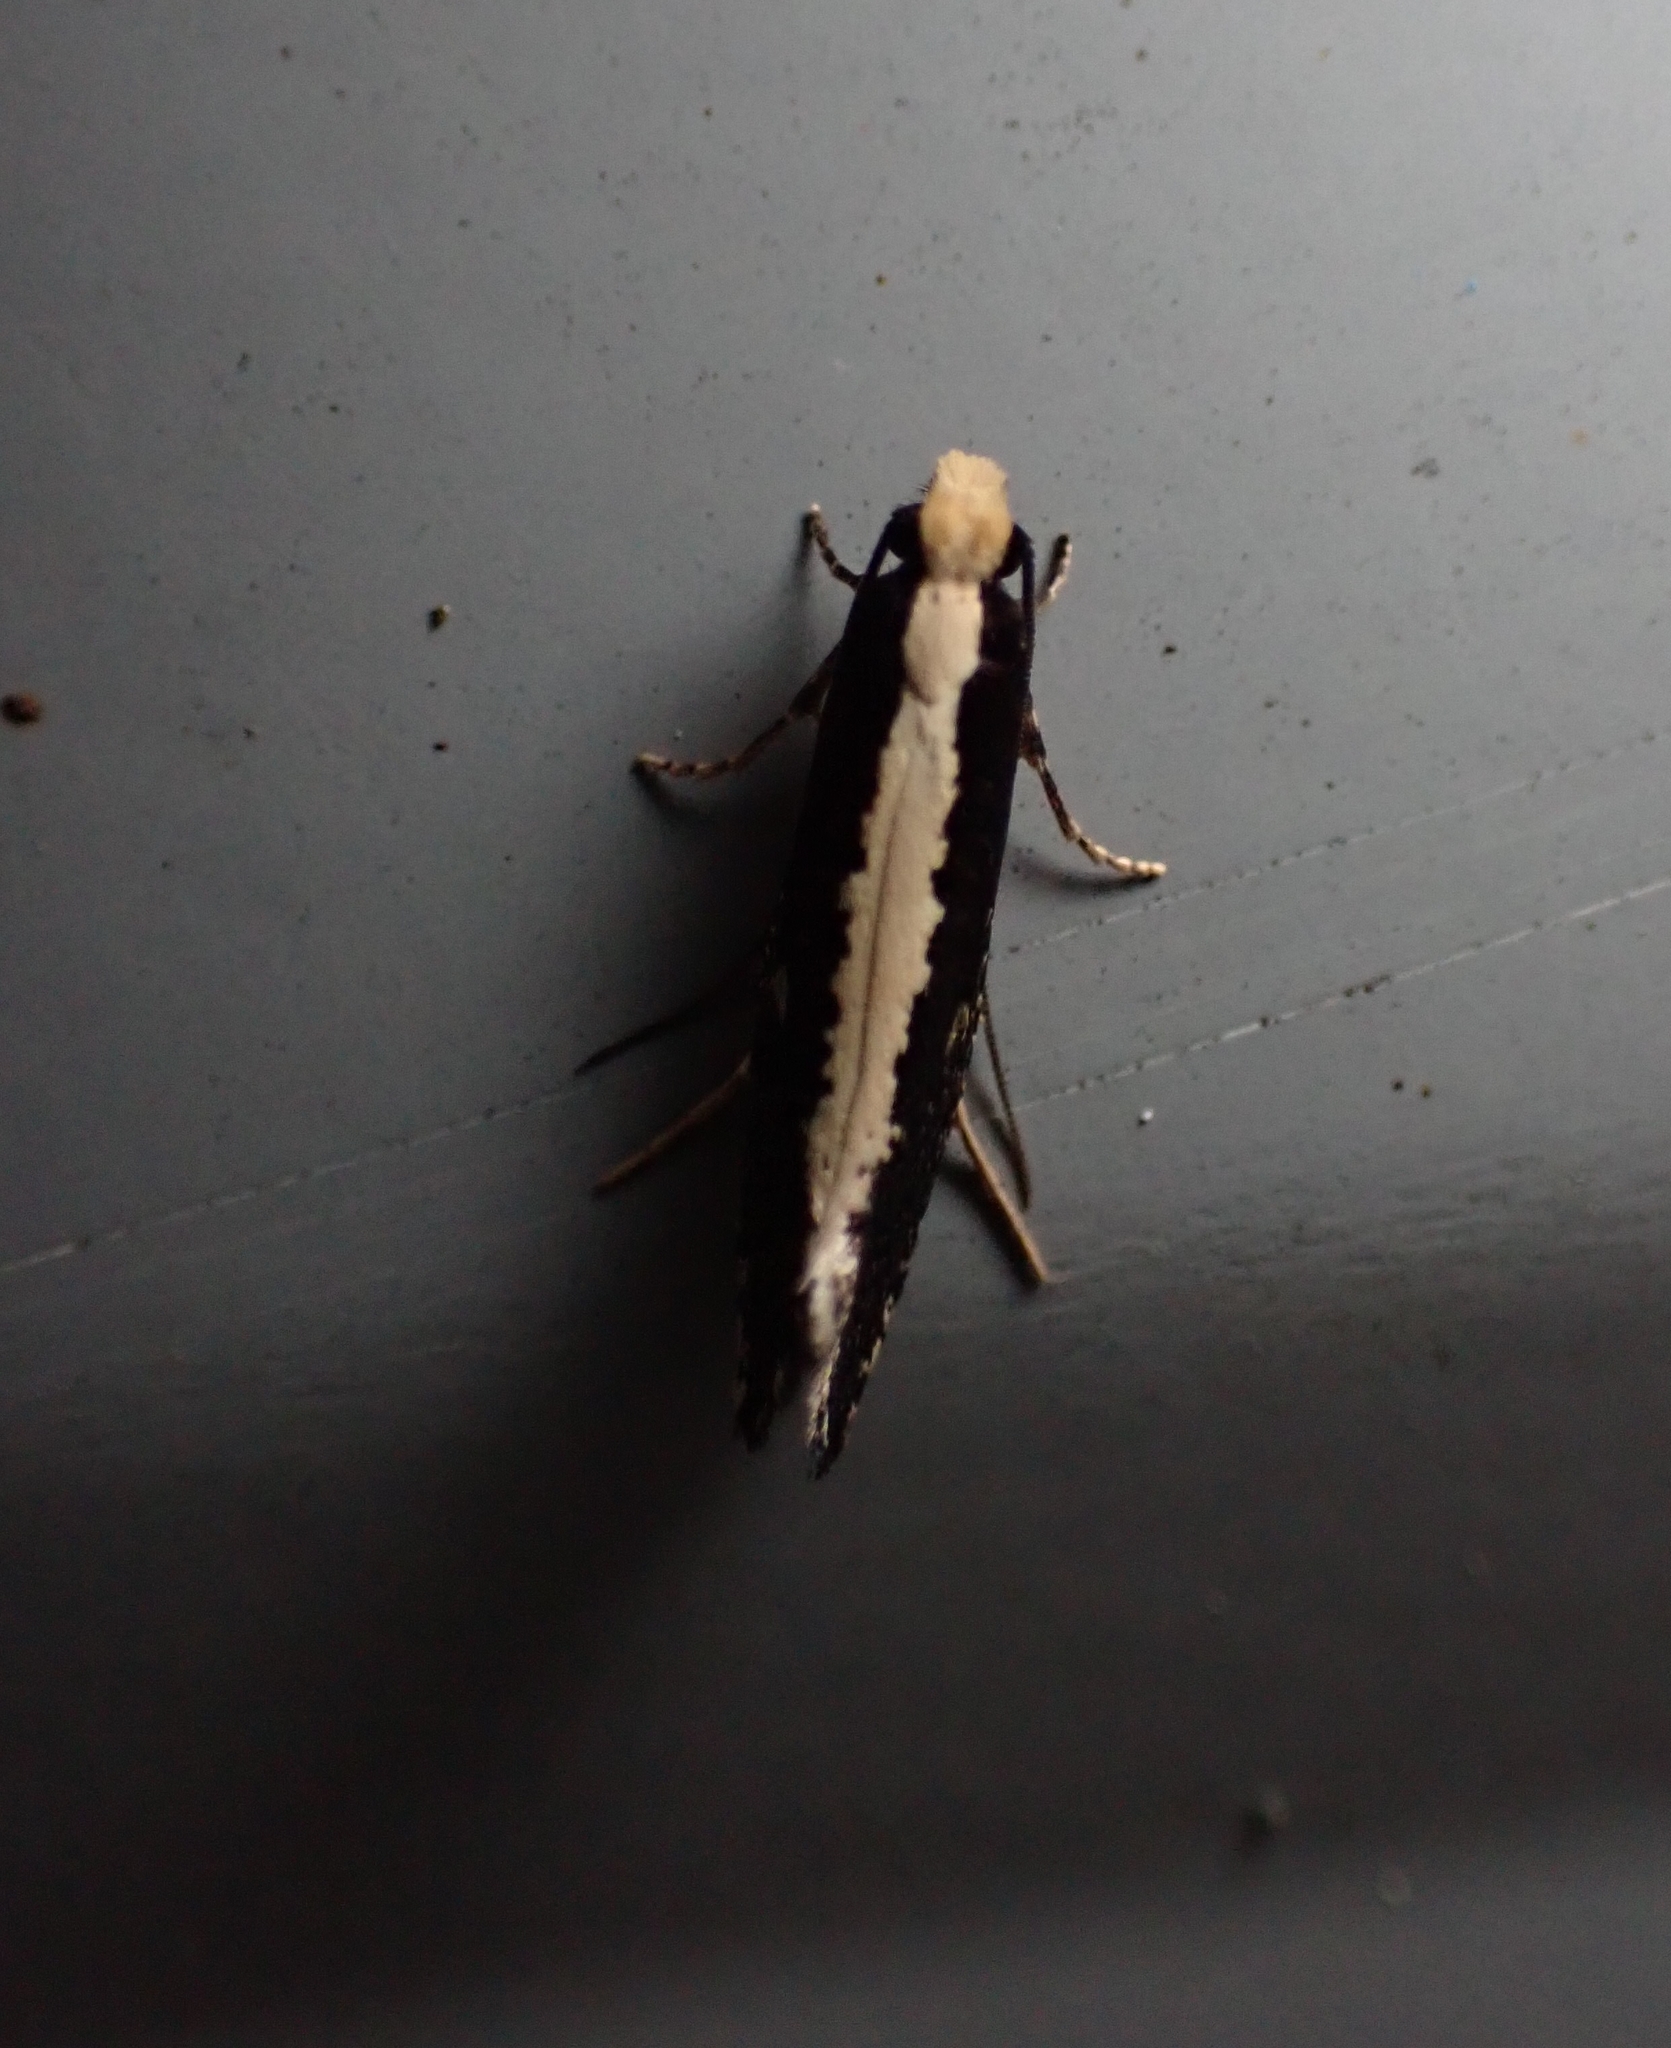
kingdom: Animalia
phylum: Arthropoda
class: Insecta
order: Lepidoptera
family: Tineidae
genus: Monopis
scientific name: Monopis ethelella
